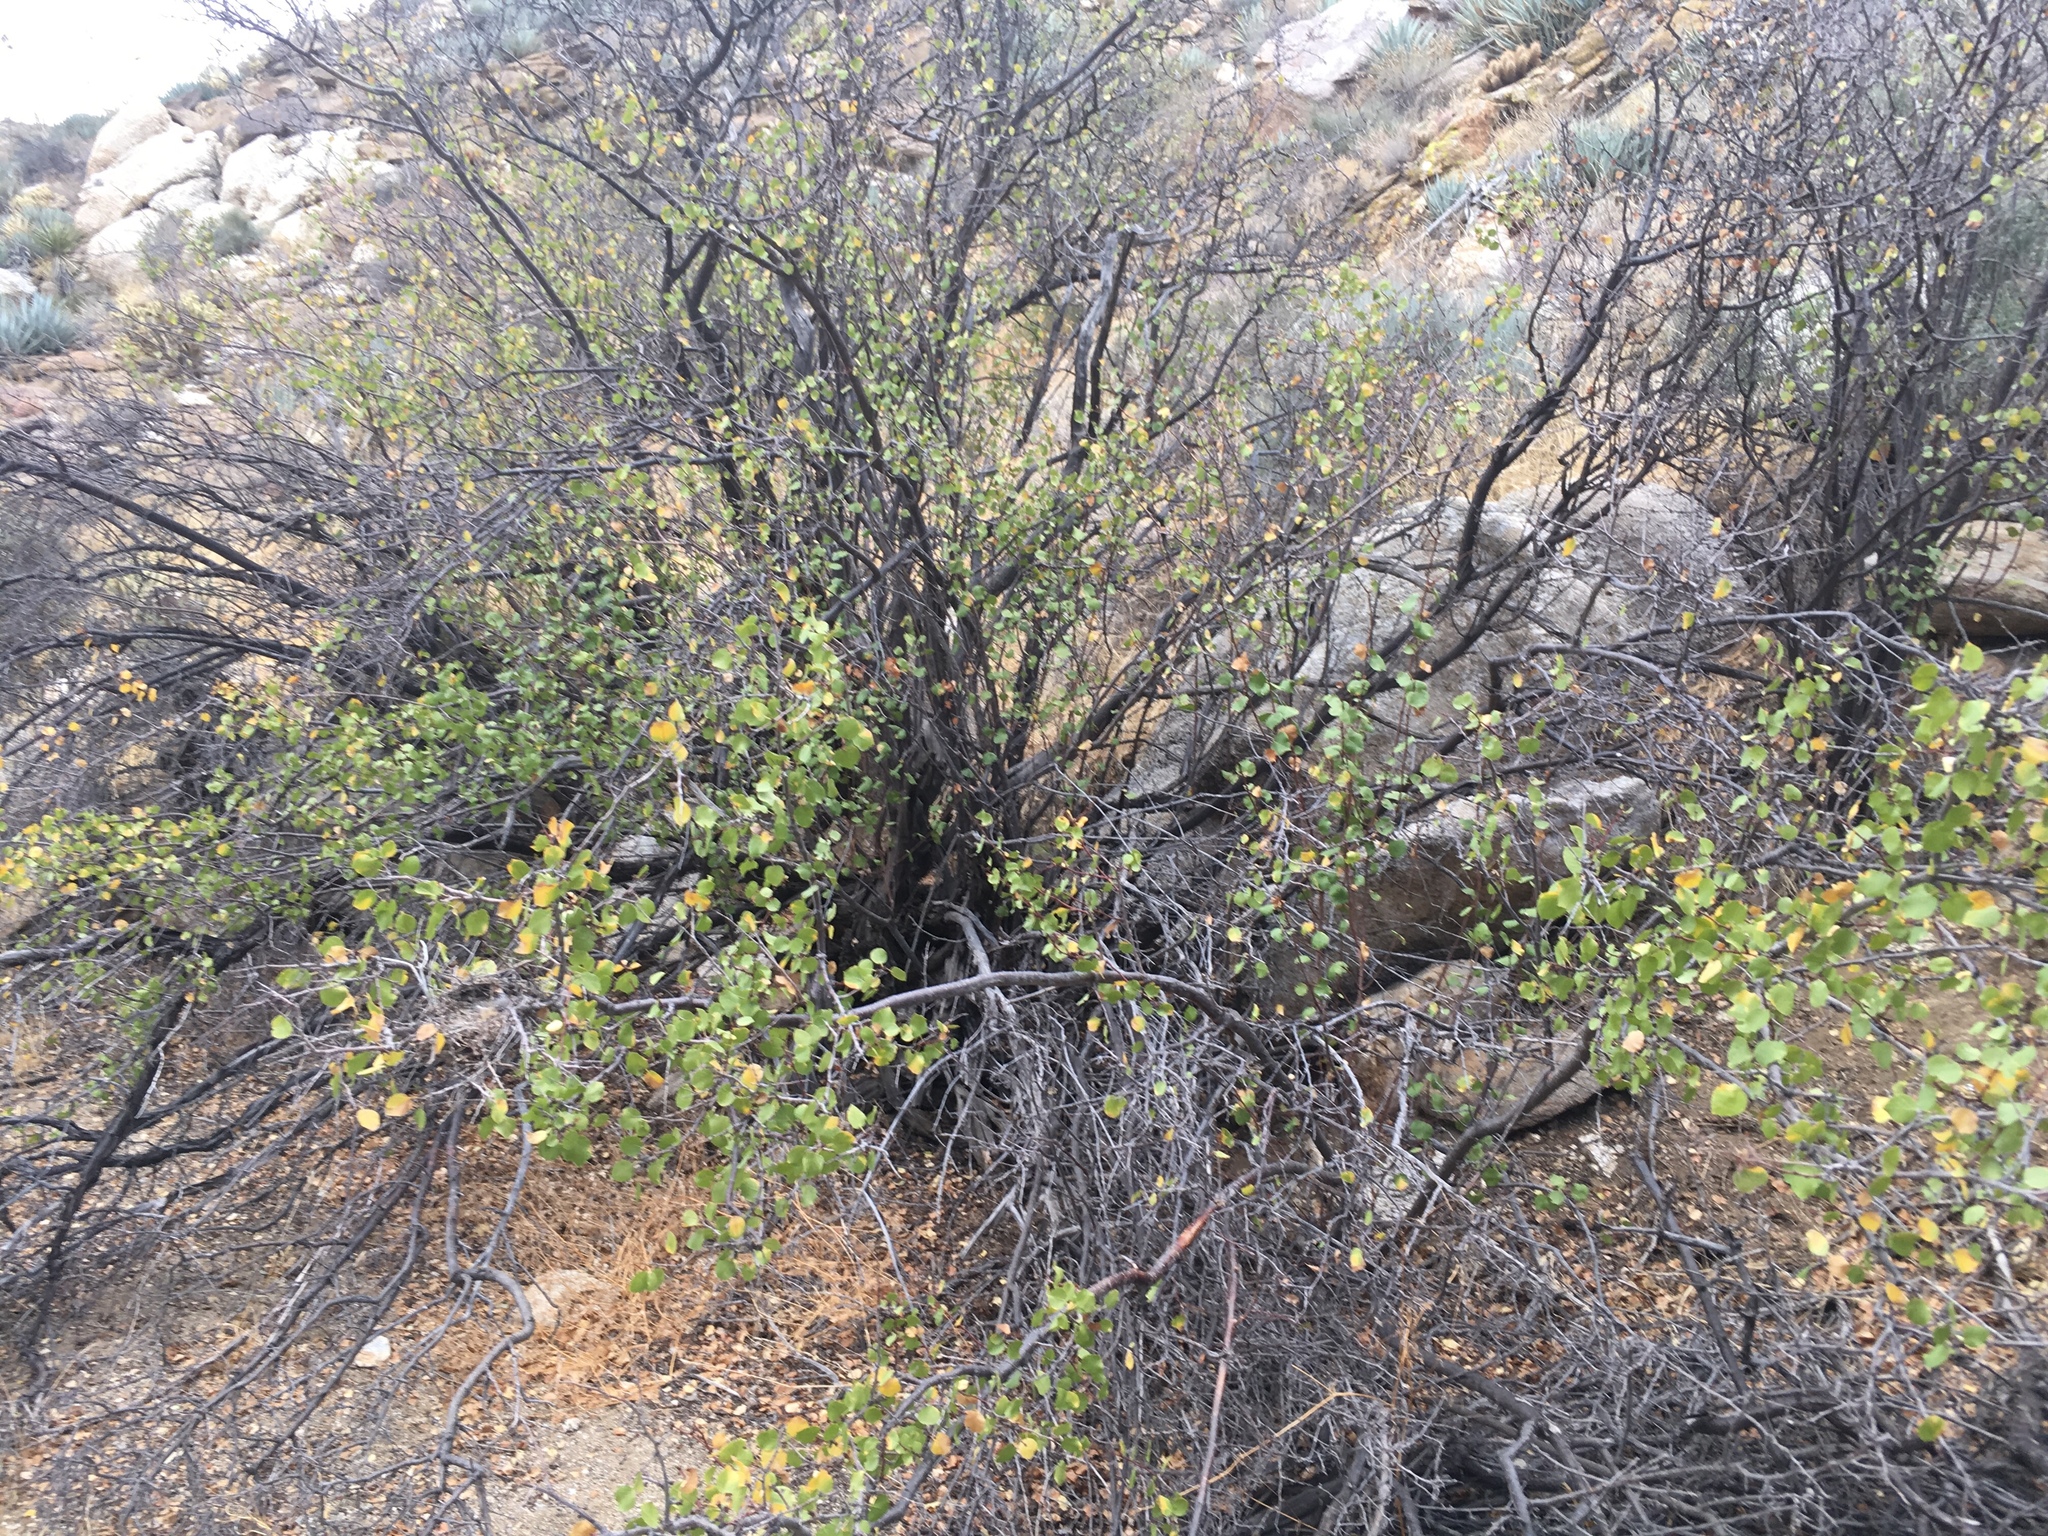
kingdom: Plantae
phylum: Tracheophyta
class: Magnoliopsida
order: Rosales
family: Rosaceae
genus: Prunus
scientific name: Prunus fremontii
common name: Desert apricot
